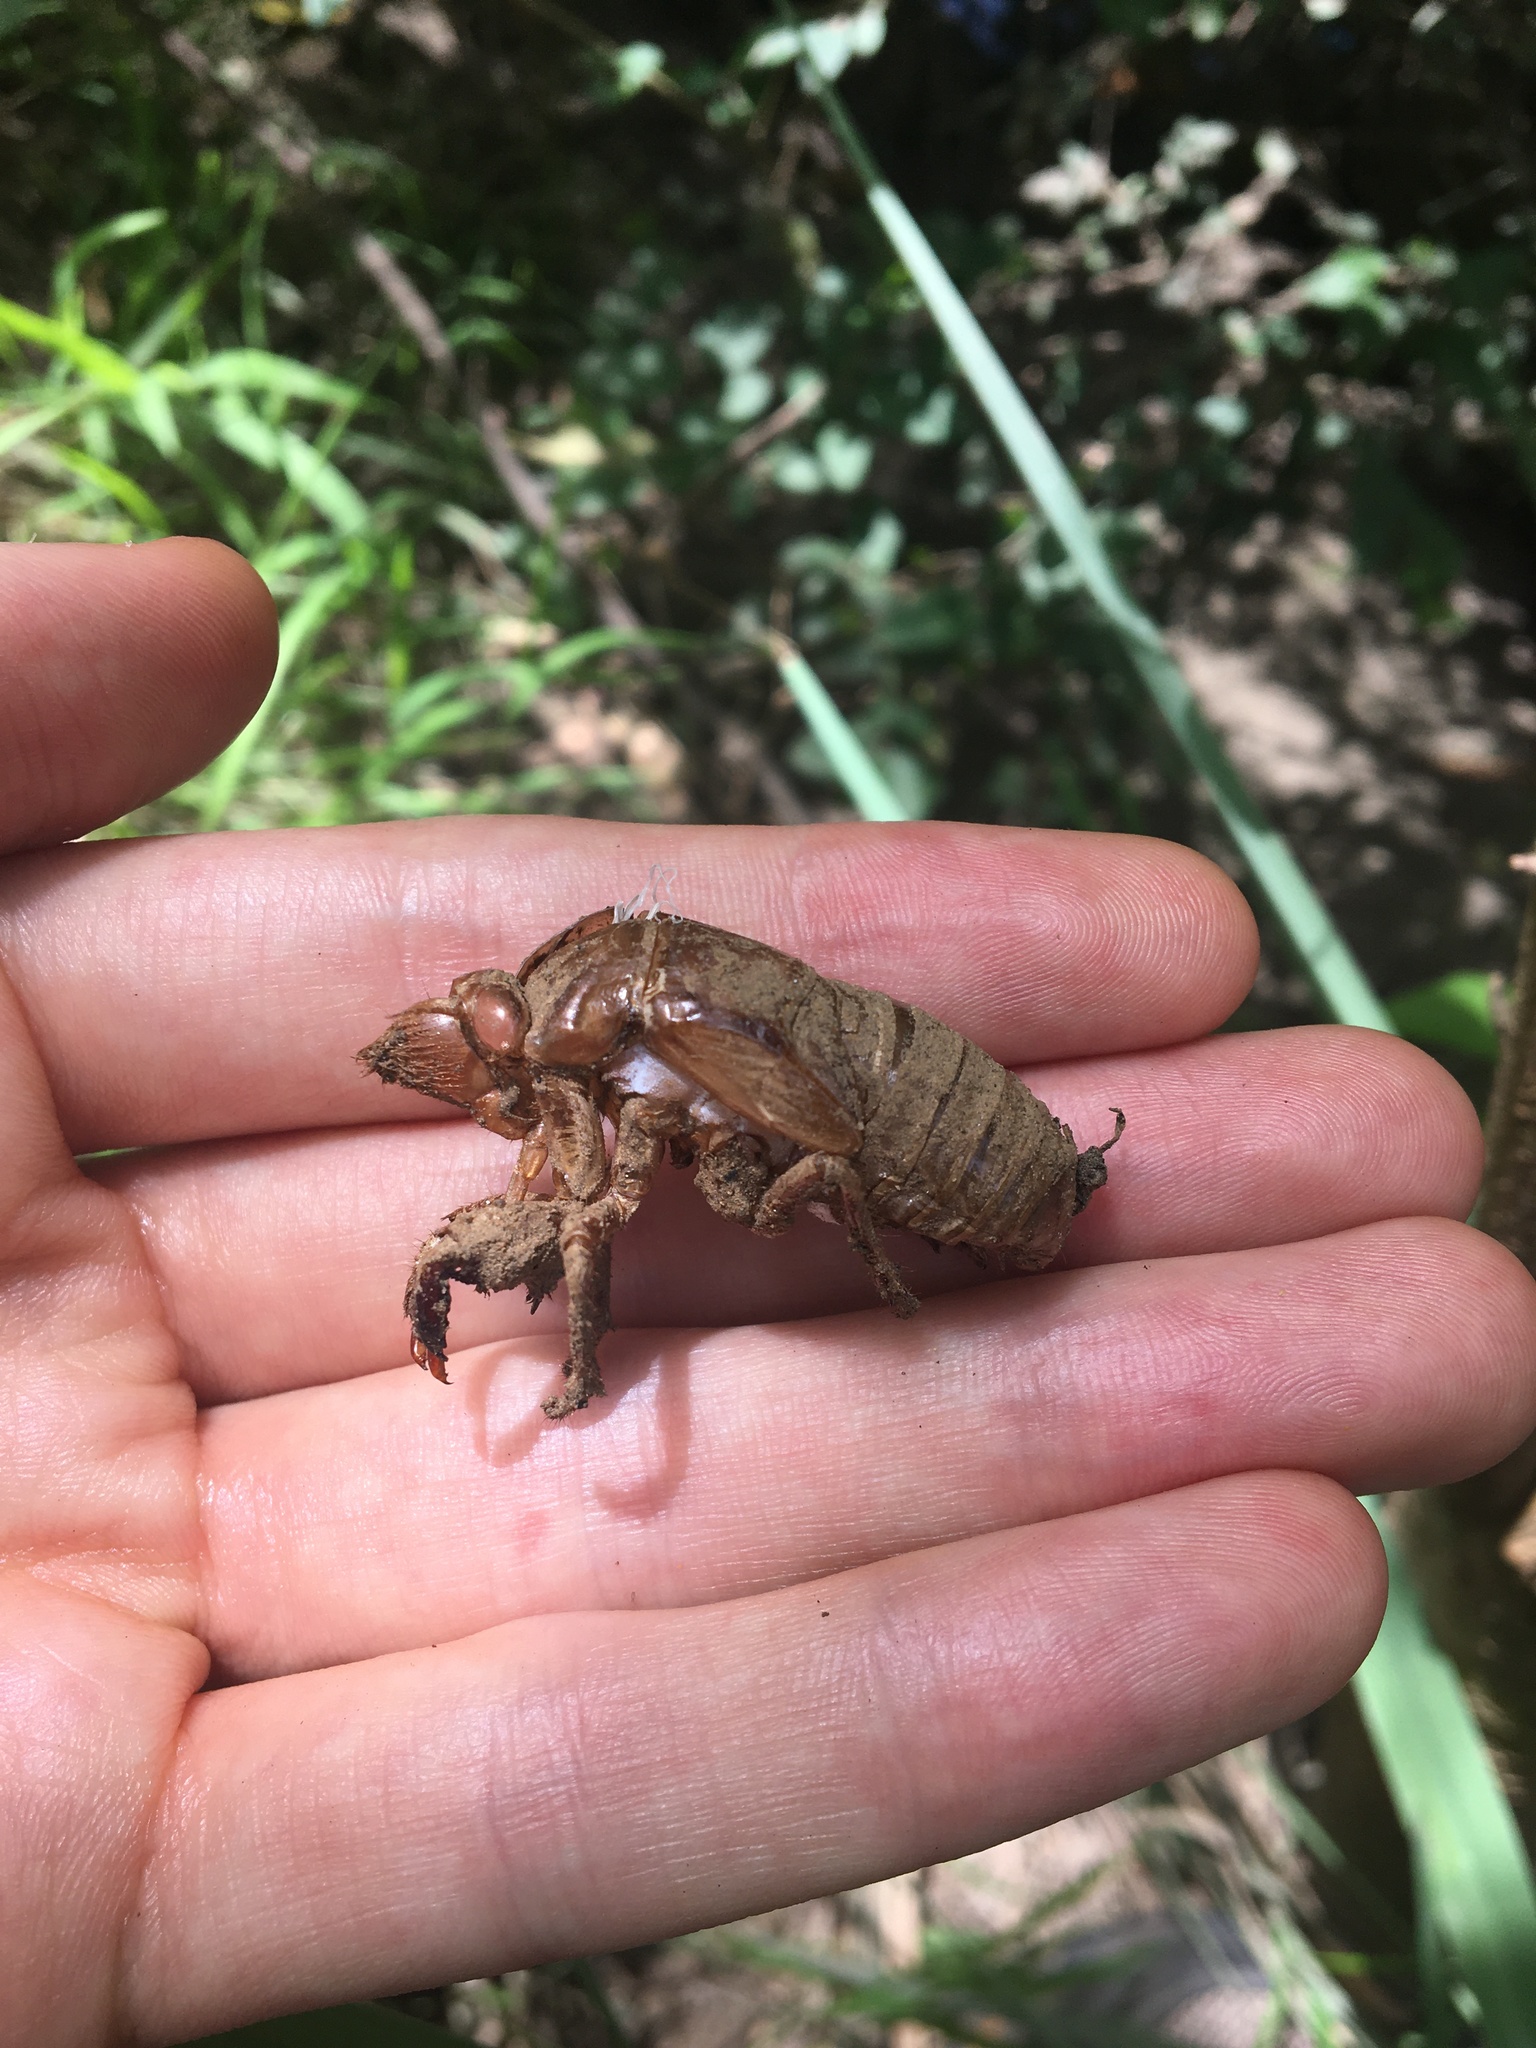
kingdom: Animalia
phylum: Arthropoda
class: Insecta
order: Hemiptera
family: Cicadidae
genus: Cyclochila
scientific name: Cyclochila australasiae
